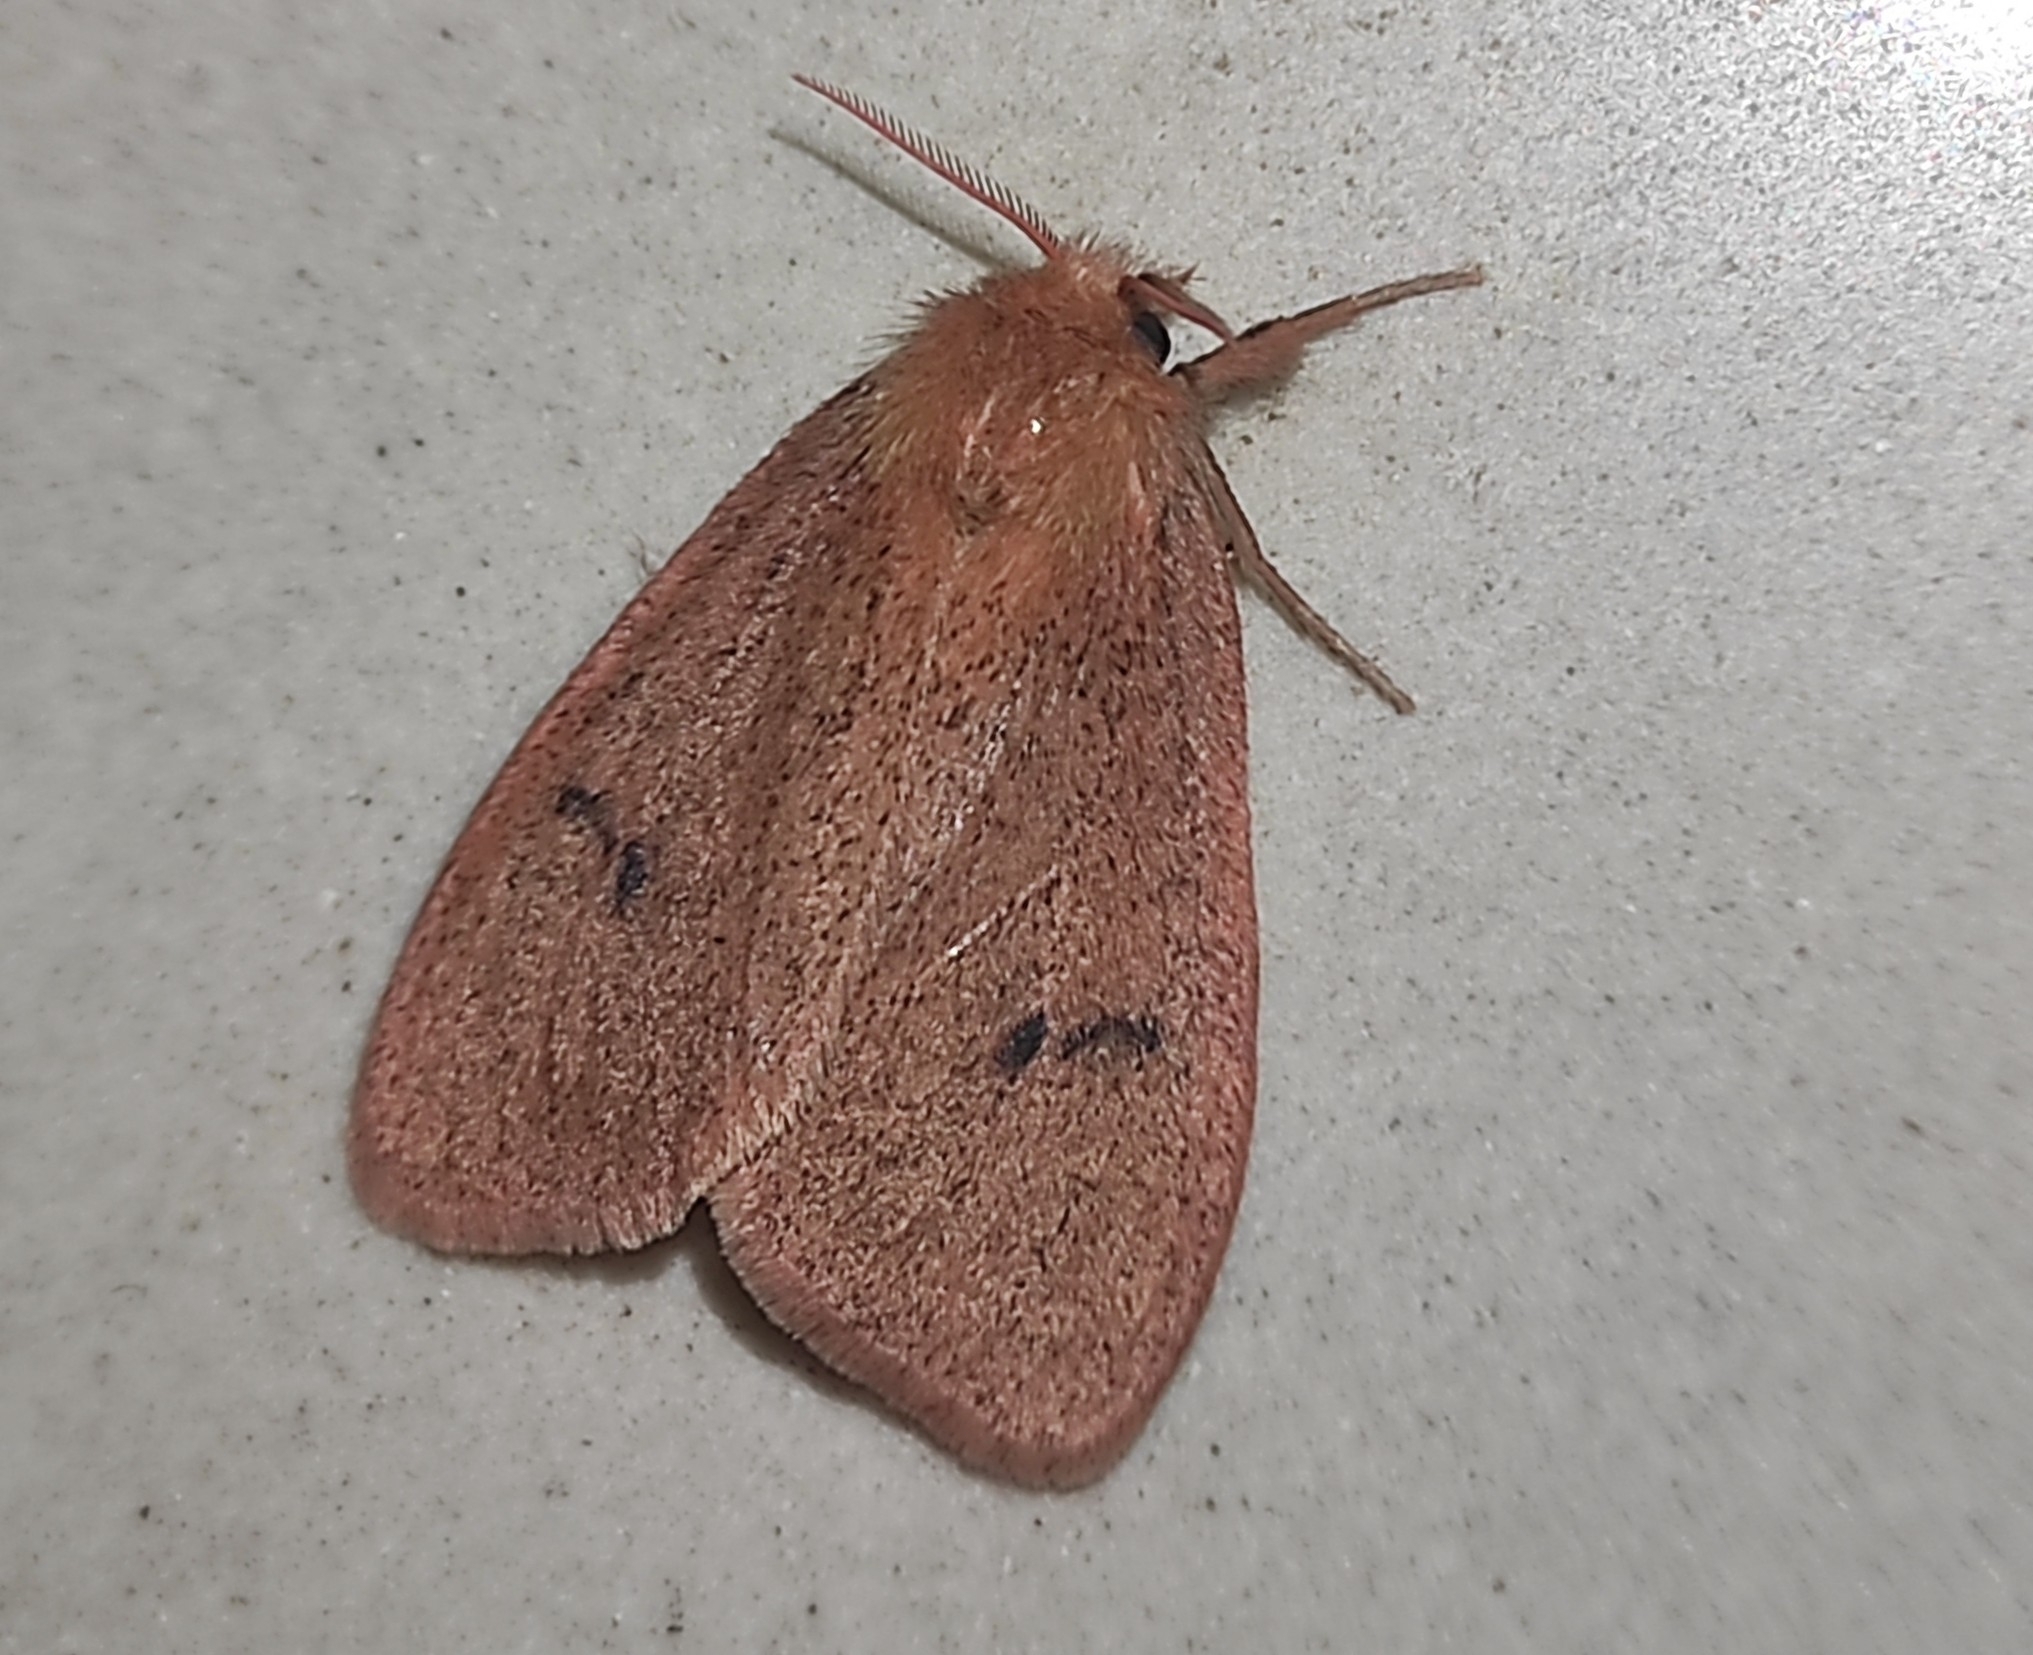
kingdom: Animalia
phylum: Arthropoda
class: Insecta
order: Lepidoptera
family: Erebidae
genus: Laelia
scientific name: Laelia exclamationis
